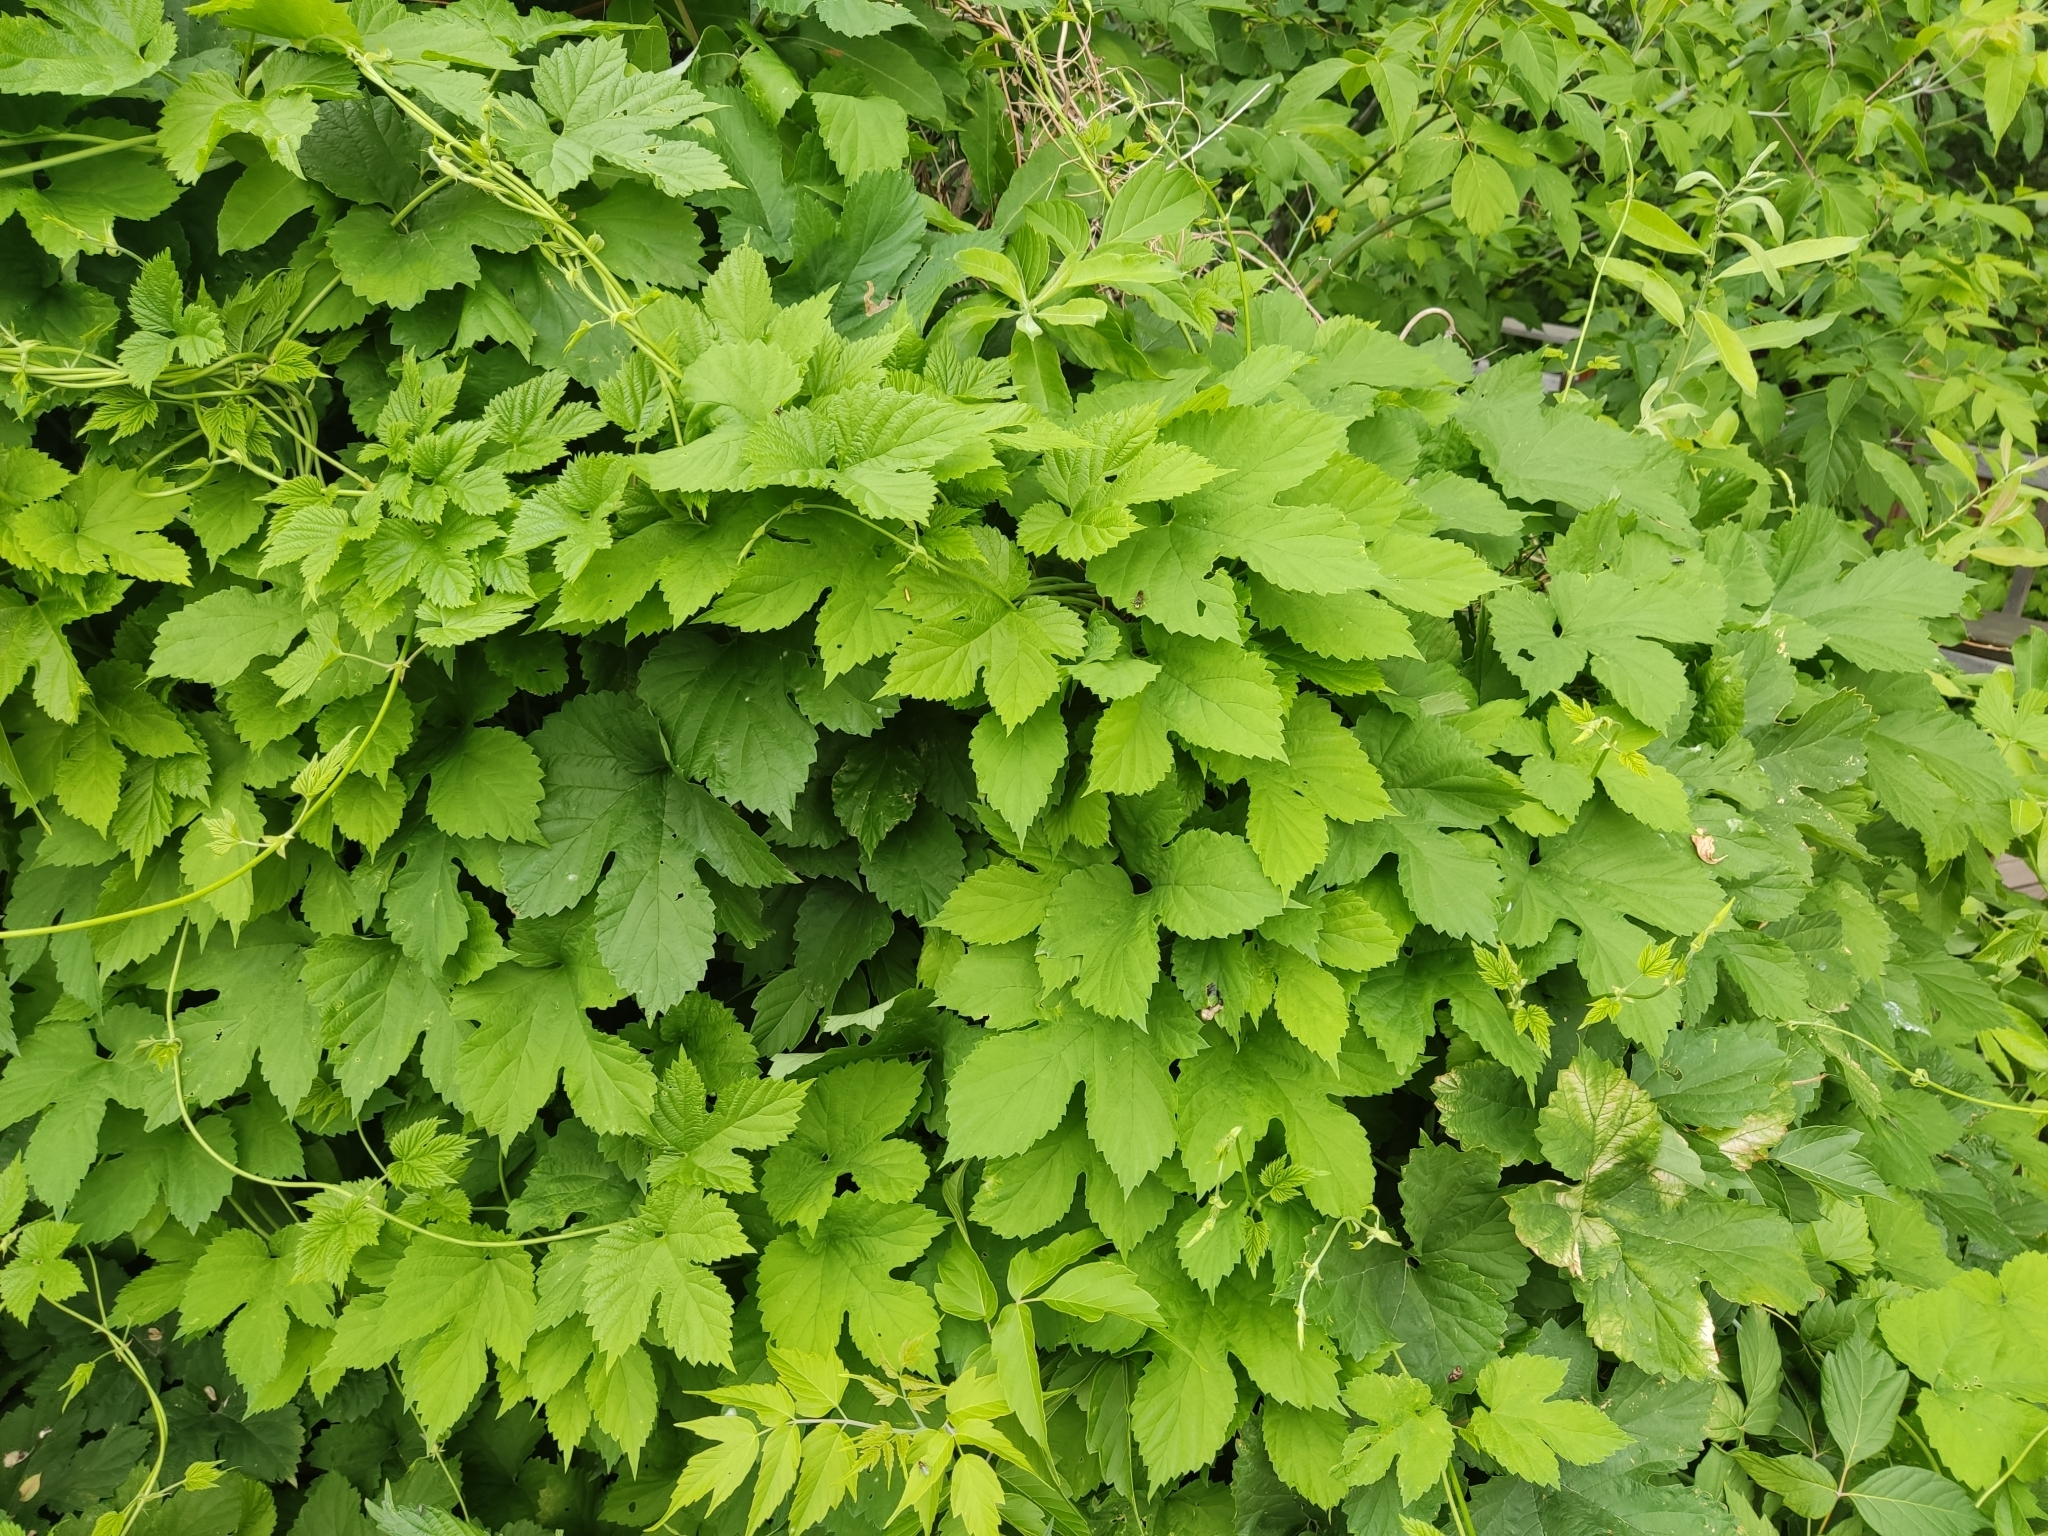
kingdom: Plantae
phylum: Tracheophyta
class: Magnoliopsida
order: Rosales
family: Cannabaceae
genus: Humulus
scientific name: Humulus lupulus
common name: Hop
